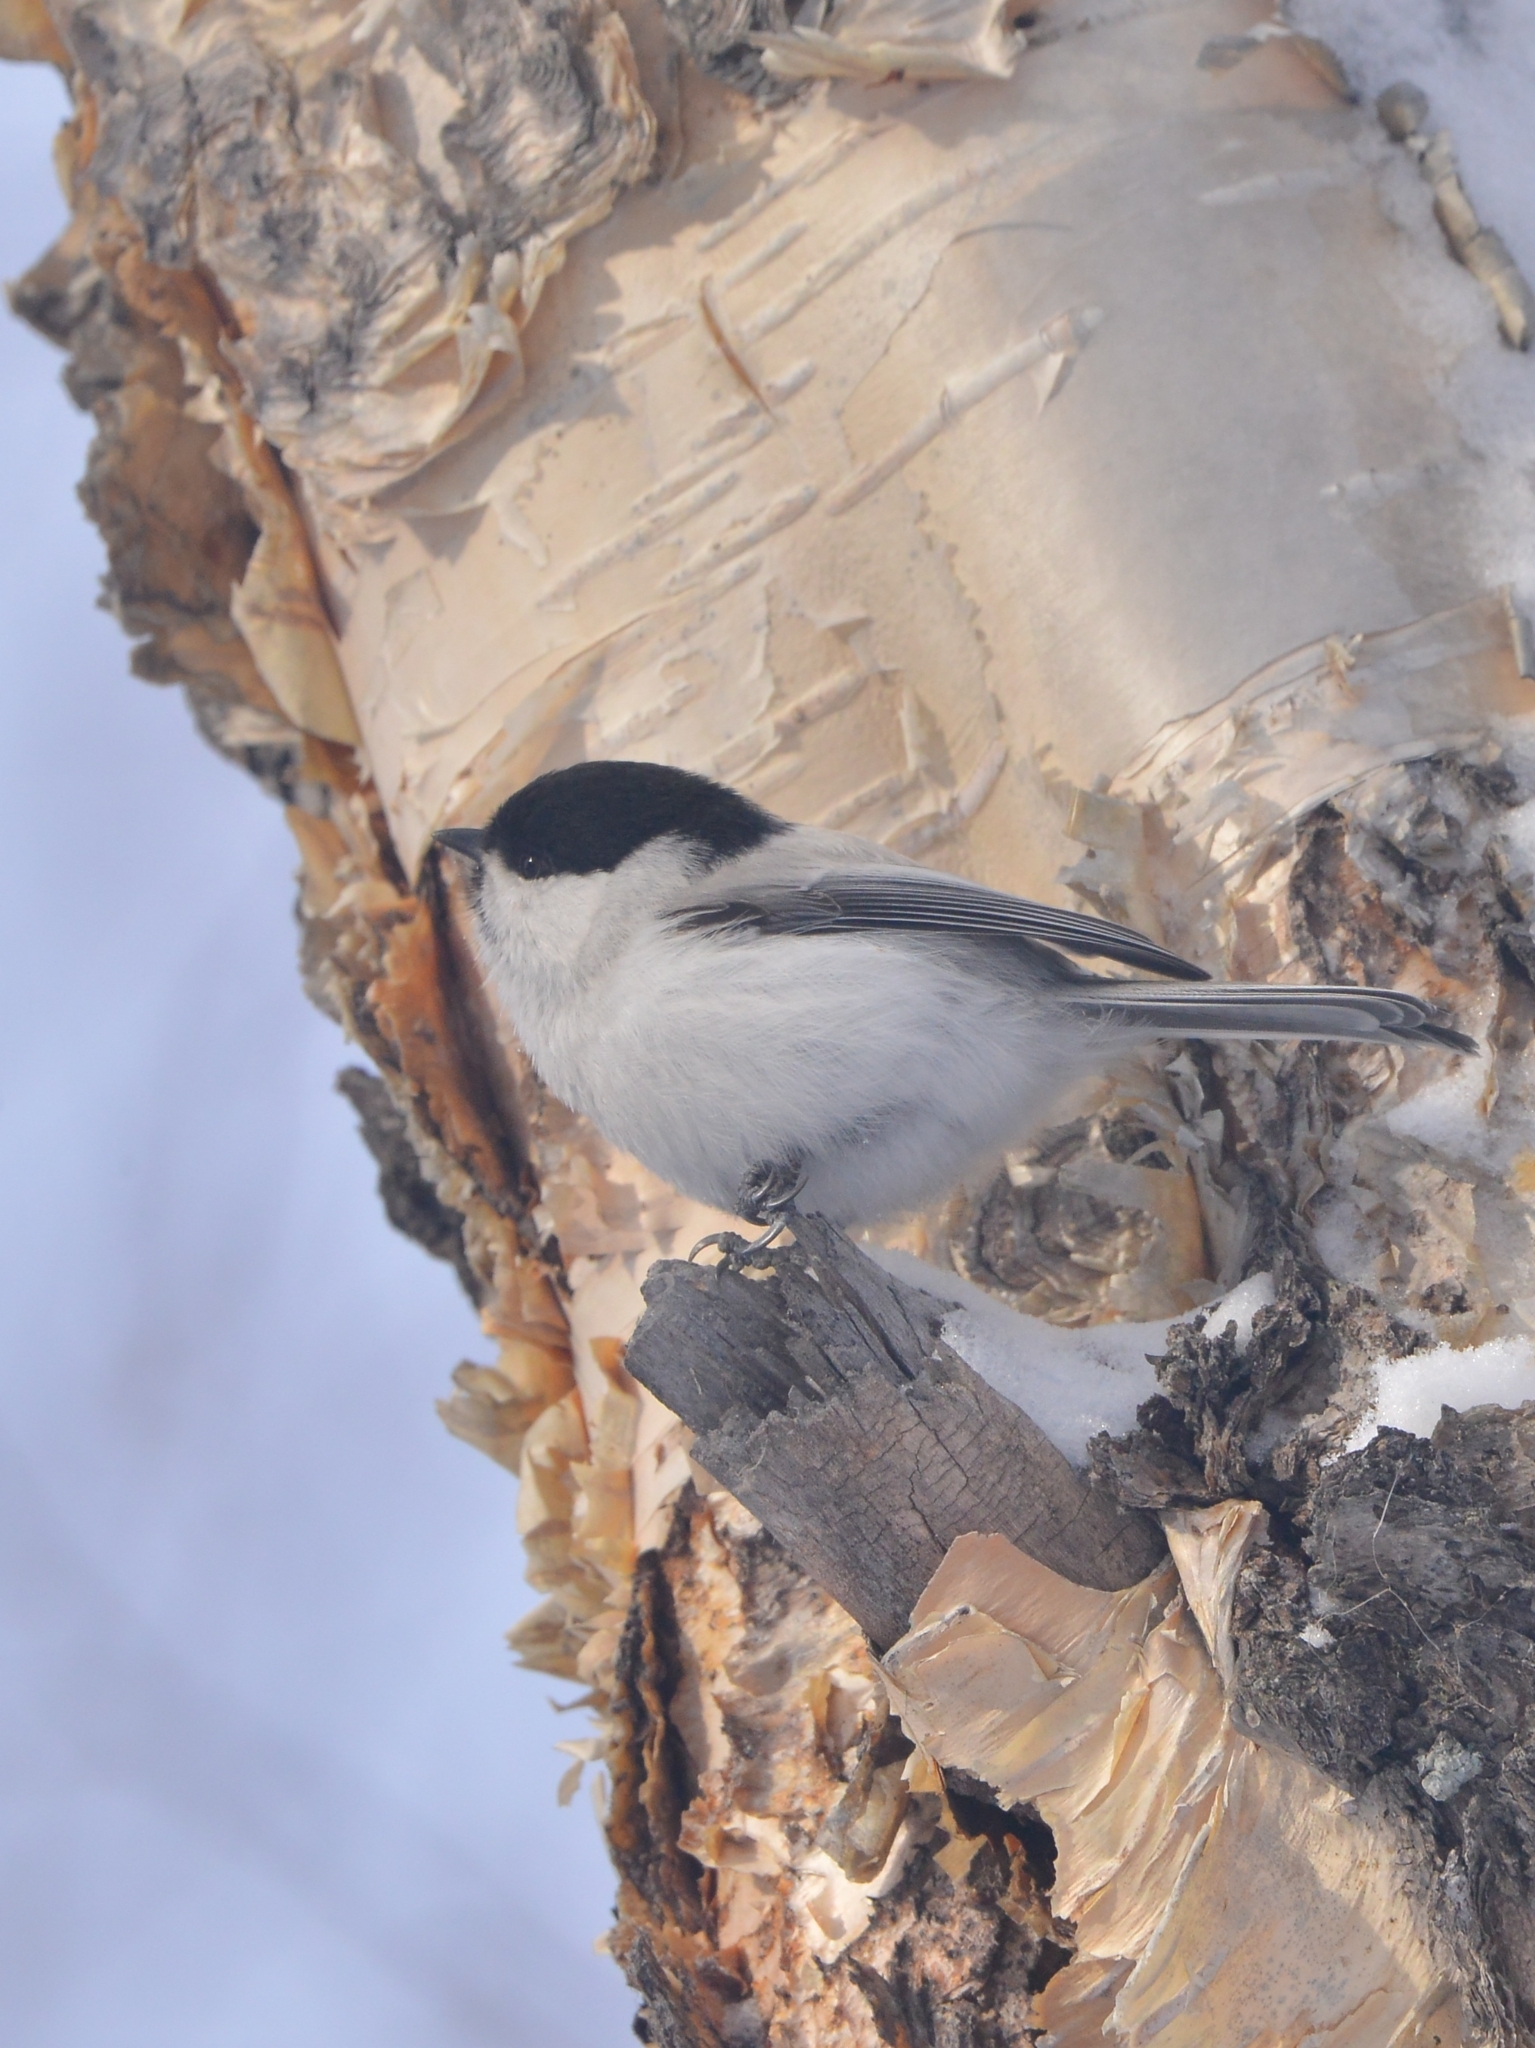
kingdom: Animalia
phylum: Chordata
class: Aves
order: Passeriformes
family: Paridae
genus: Poecile
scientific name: Poecile montanus
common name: Willow tit
